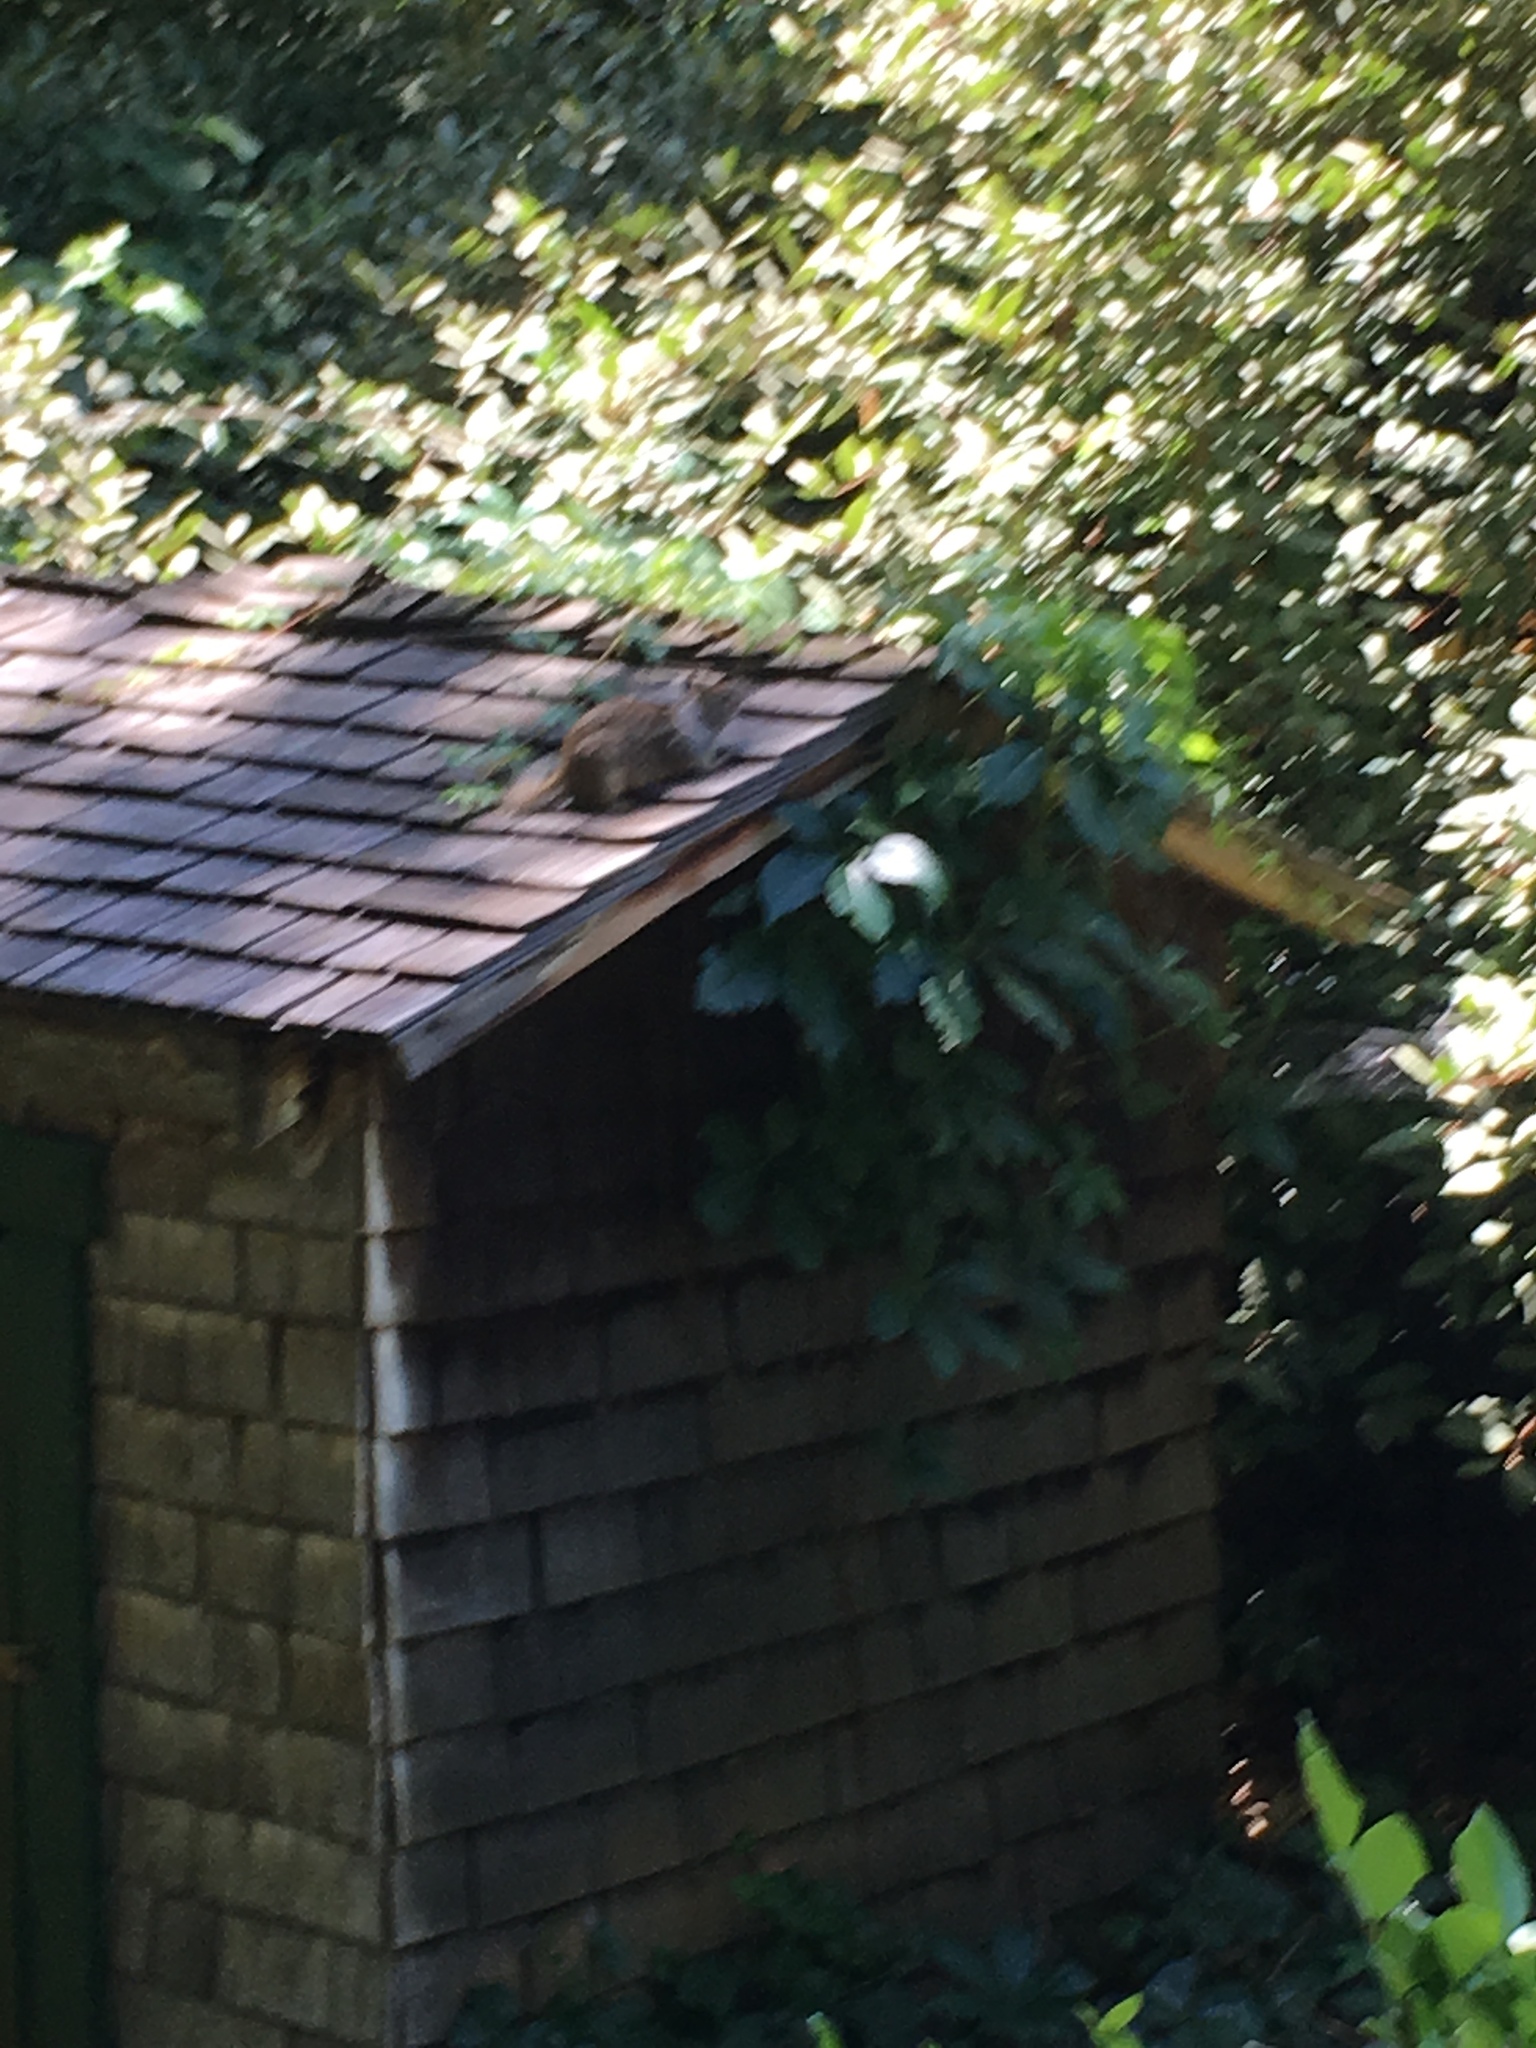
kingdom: Animalia
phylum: Chordata
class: Mammalia
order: Rodentia
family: Sciuridae
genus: Otospermophilus
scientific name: Otospermophilus beecheyi
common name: California ground squirrel
